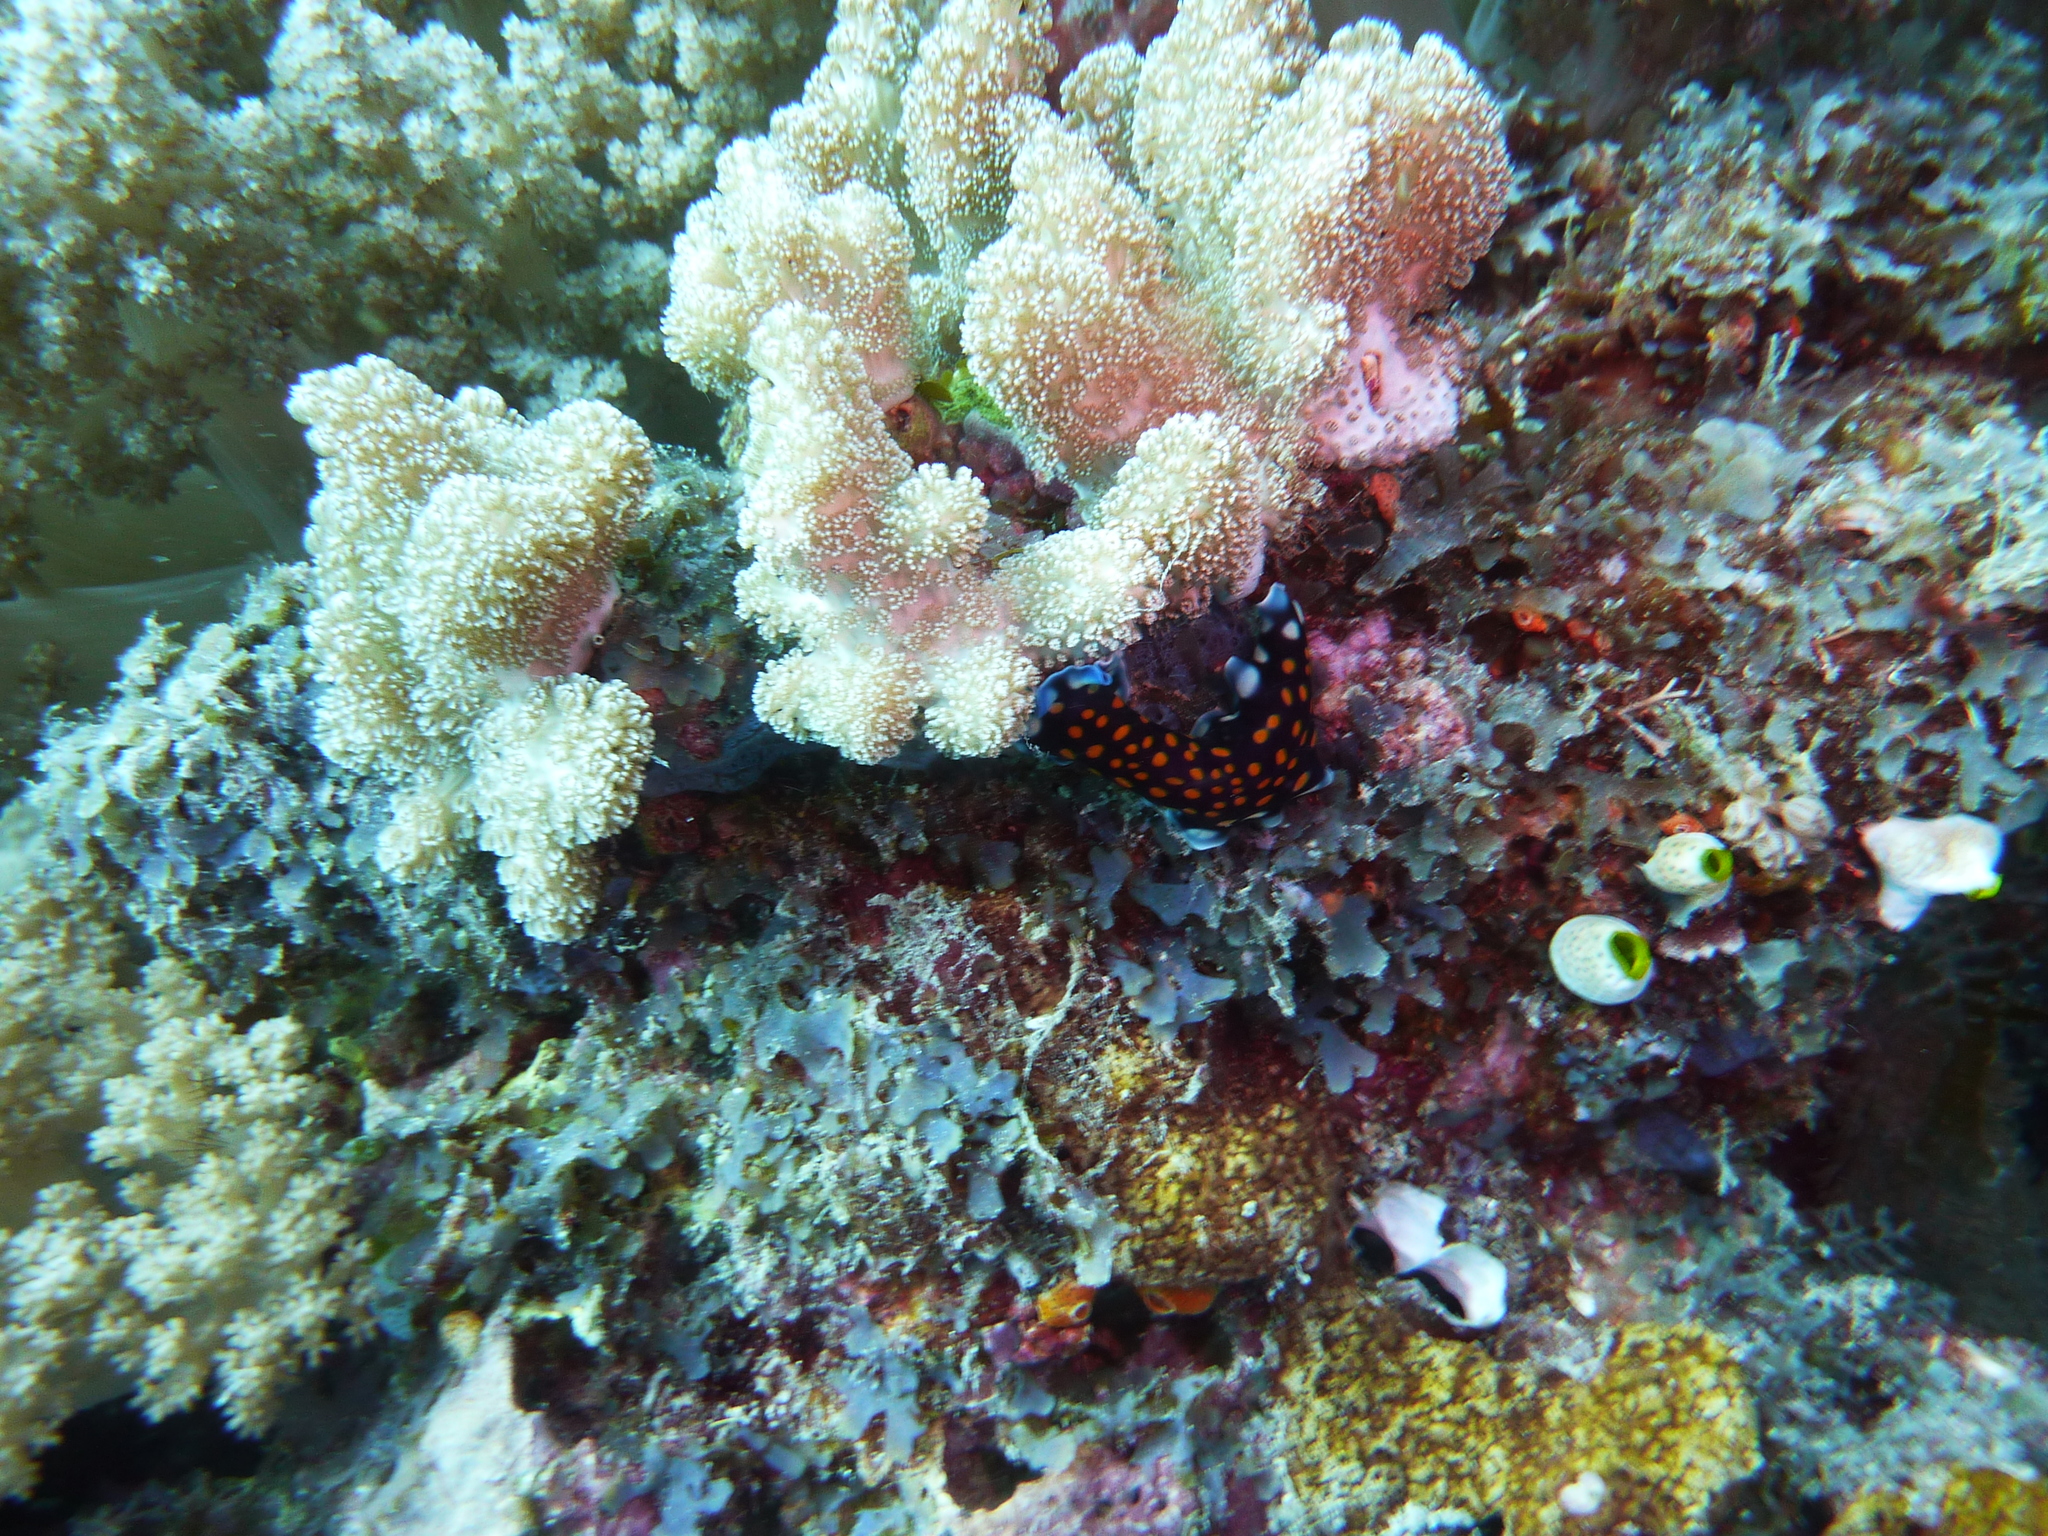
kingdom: Animalia
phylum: Platyhelminthes
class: Turbellaria
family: Pseudocerotidae
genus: Pseudoceros
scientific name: Pseudoceros lindae
